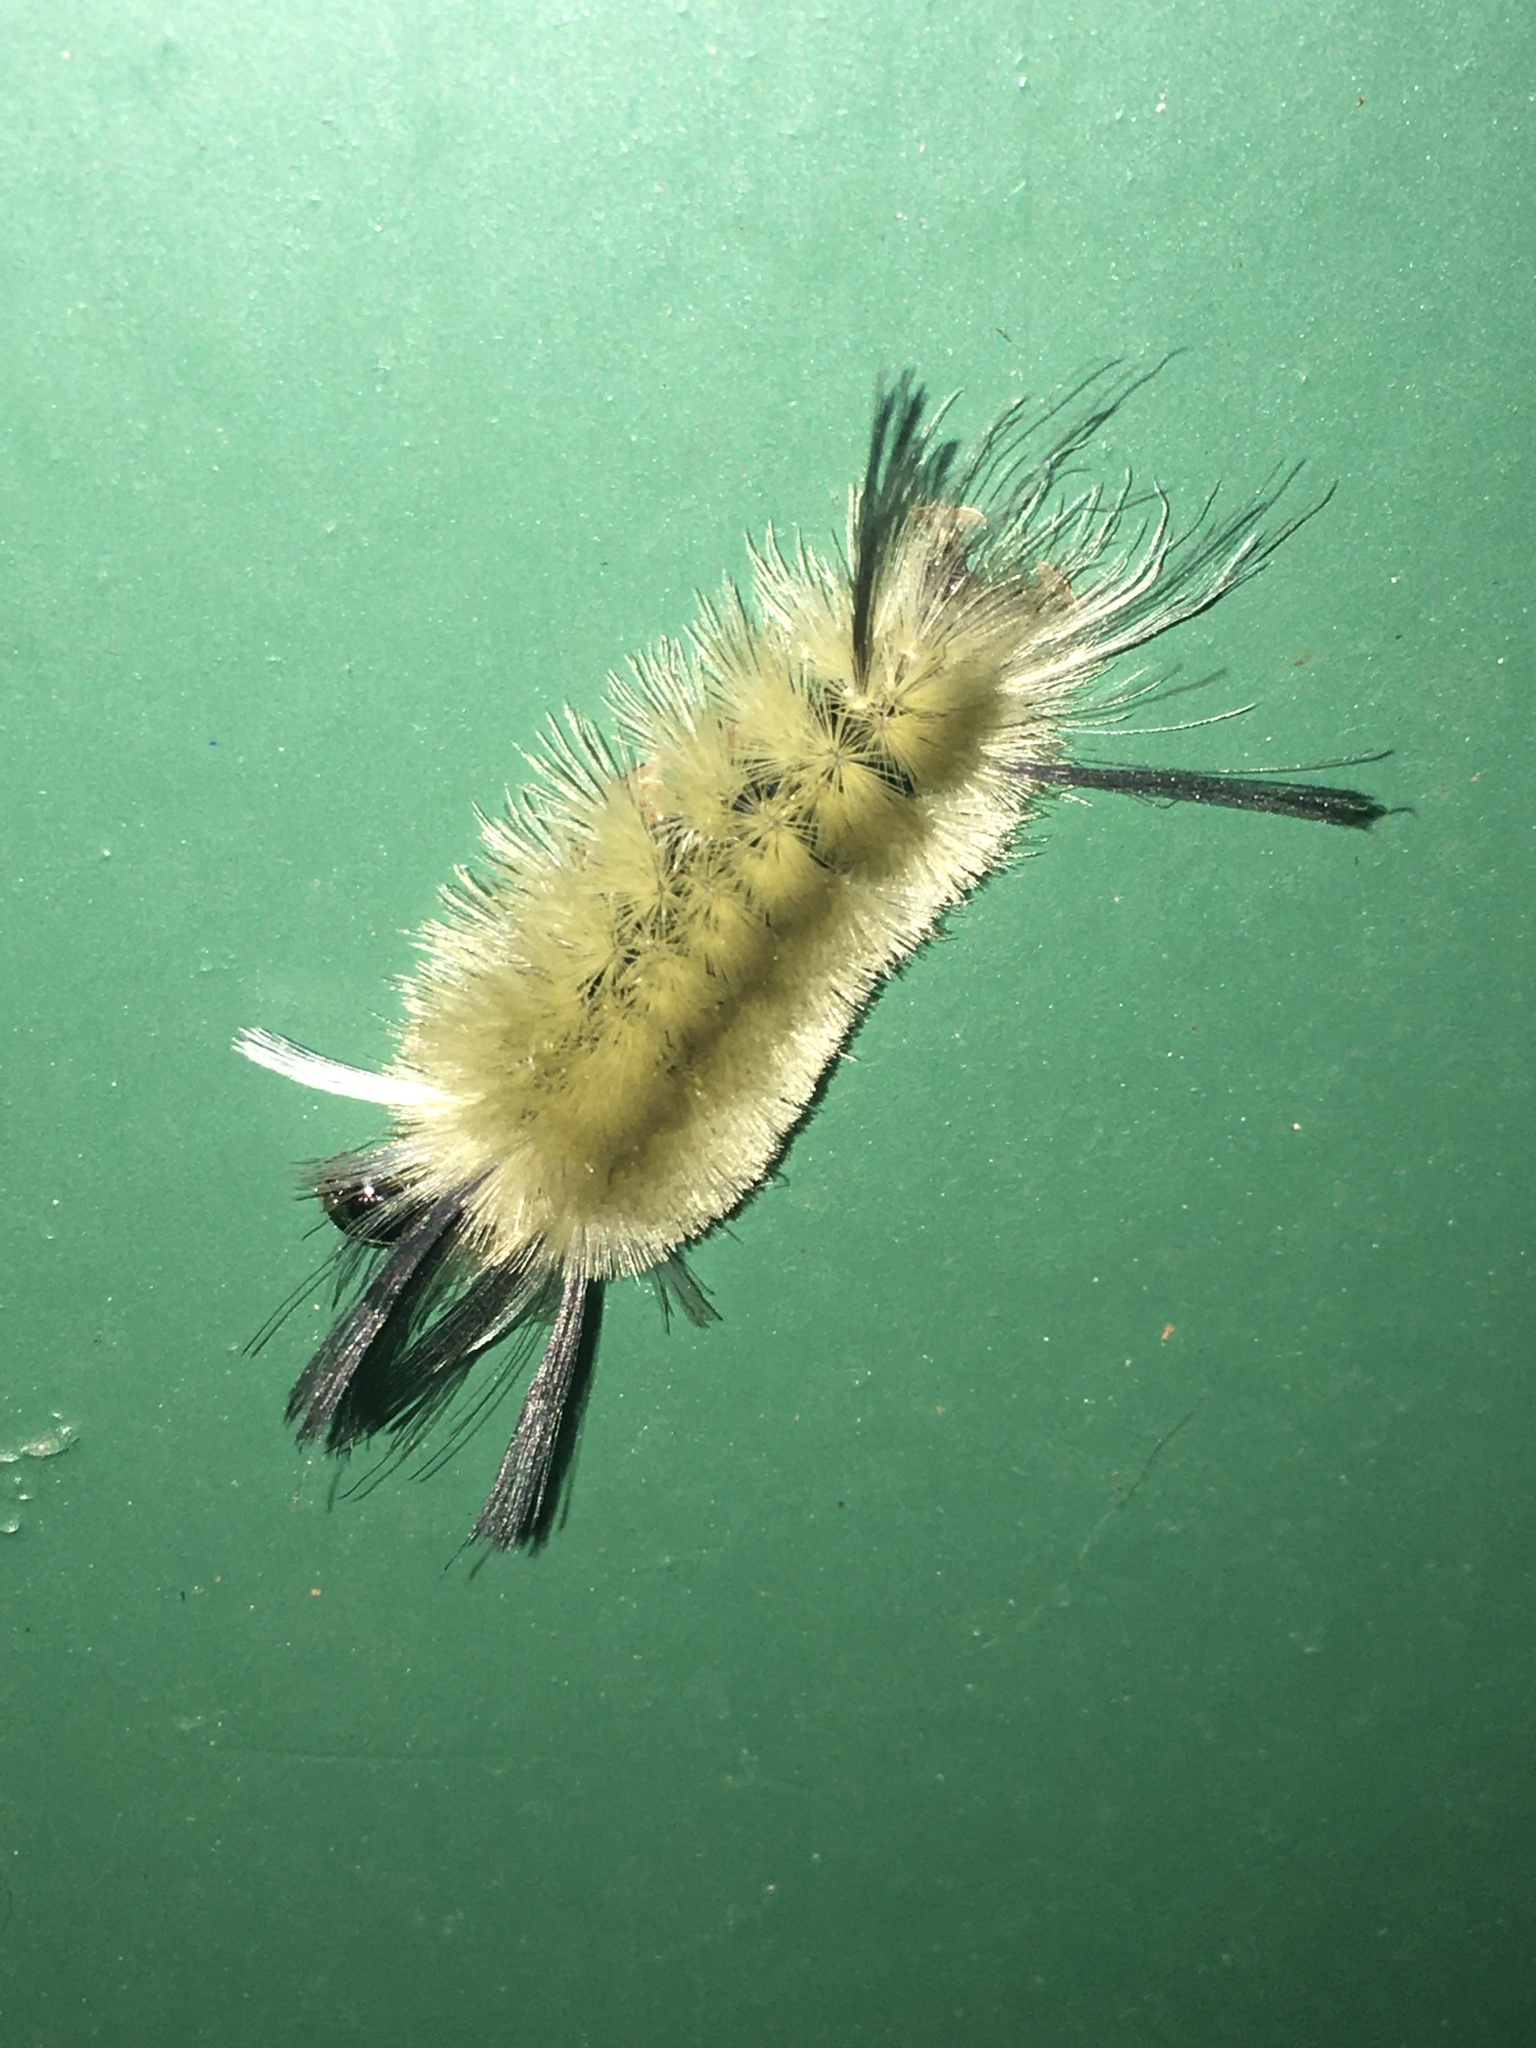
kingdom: Animalia
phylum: Arthropoda
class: Insecta
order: Lepidoptera
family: Erebidae
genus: Halysidota
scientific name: Halysidota tessellaris
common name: Banded tussock moth
